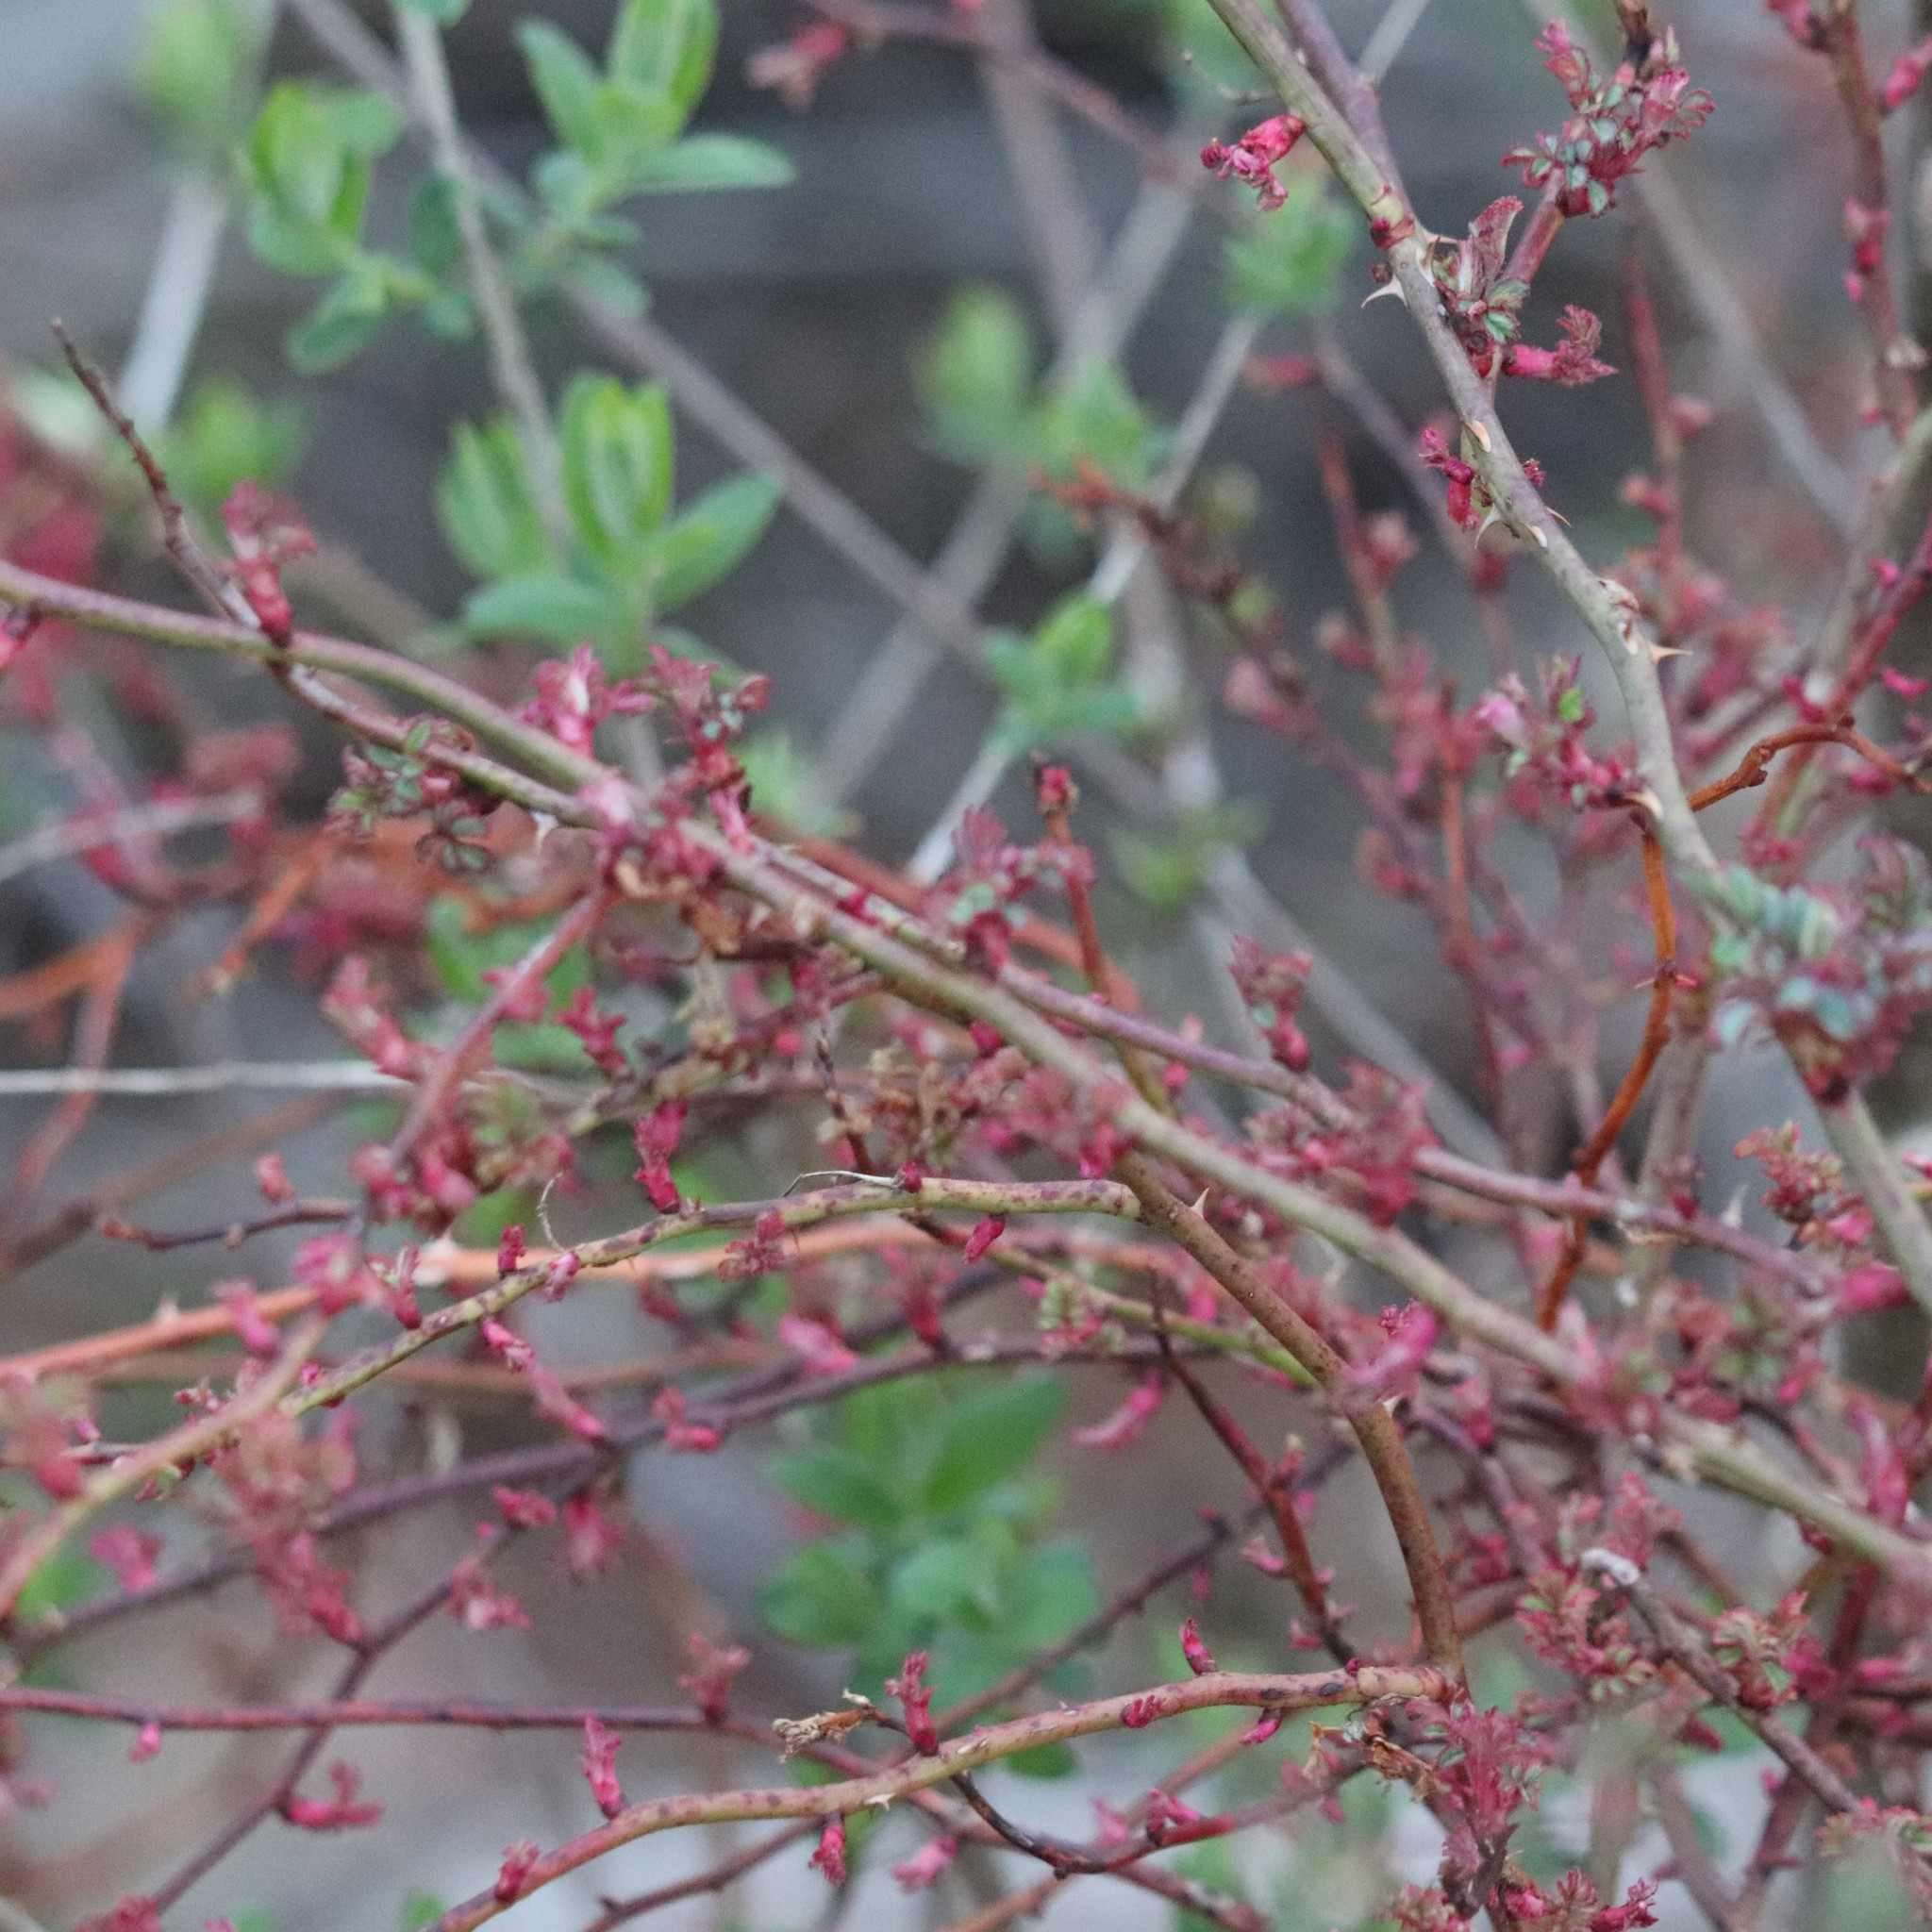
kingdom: Viruses
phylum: Negarnaviricota
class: Ellioviricetes
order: Bunyavirales
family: Fimoviridae
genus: Emaravirus
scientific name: Emaravirus rosae
